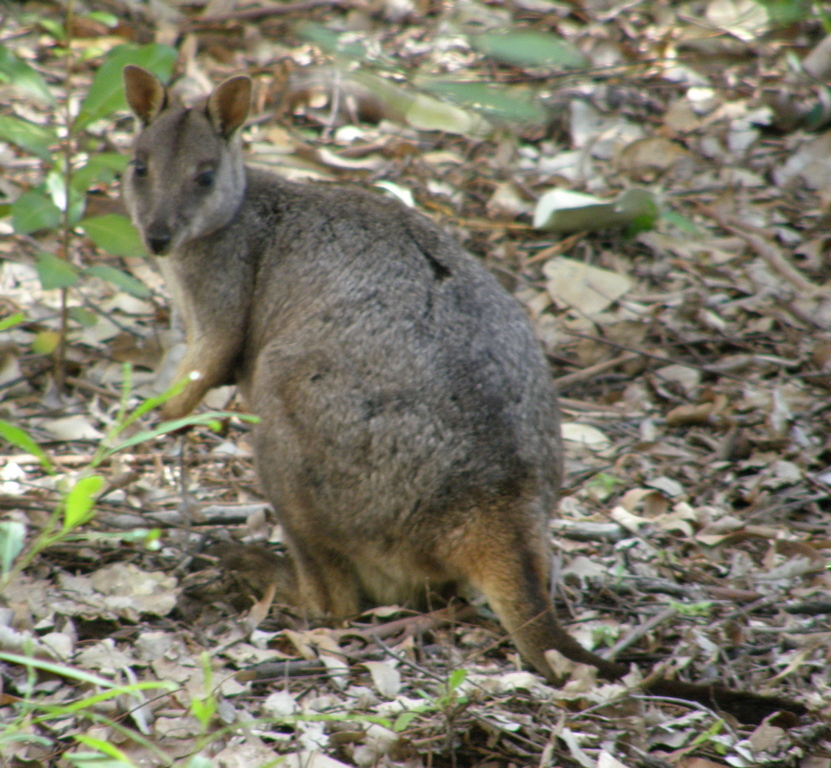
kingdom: Animalia
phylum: Chordata
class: Mammalia
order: Diprotodontia
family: Macropodidae
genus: Petrogale
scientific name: Petrogale assimilis
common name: Allied rock wallaby
